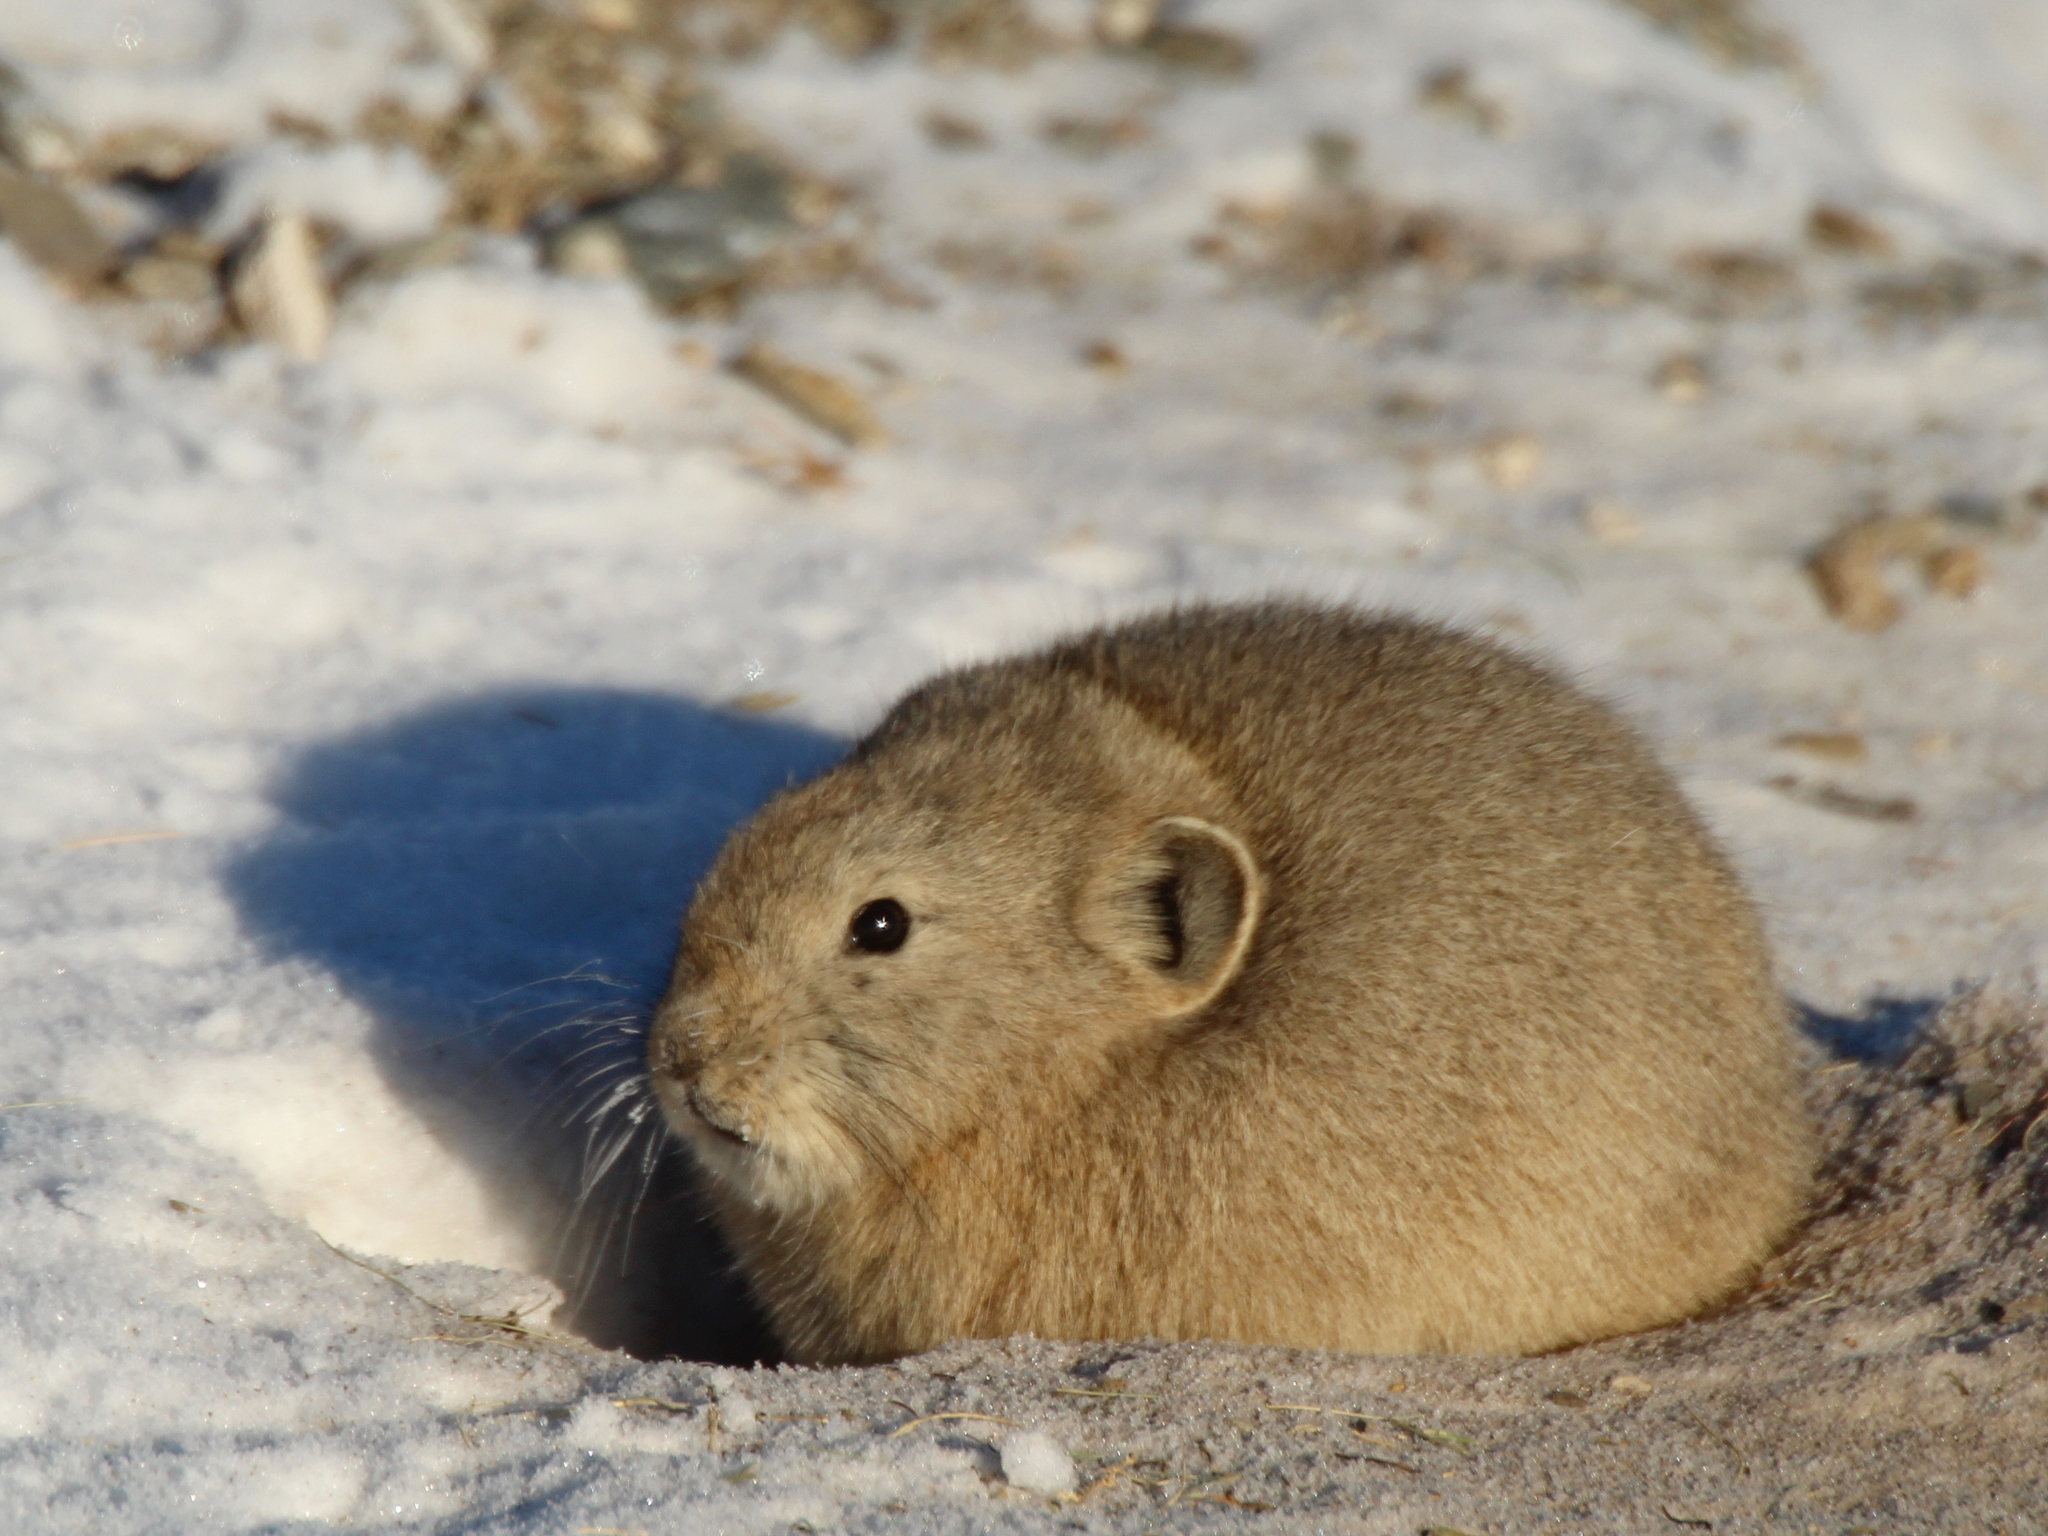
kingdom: Animalia
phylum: Chordata
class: Mammalia
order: Lagomorpha
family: Ochotonidae
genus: Ochotona
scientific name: Ochotona dauurica
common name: Daurian pika
